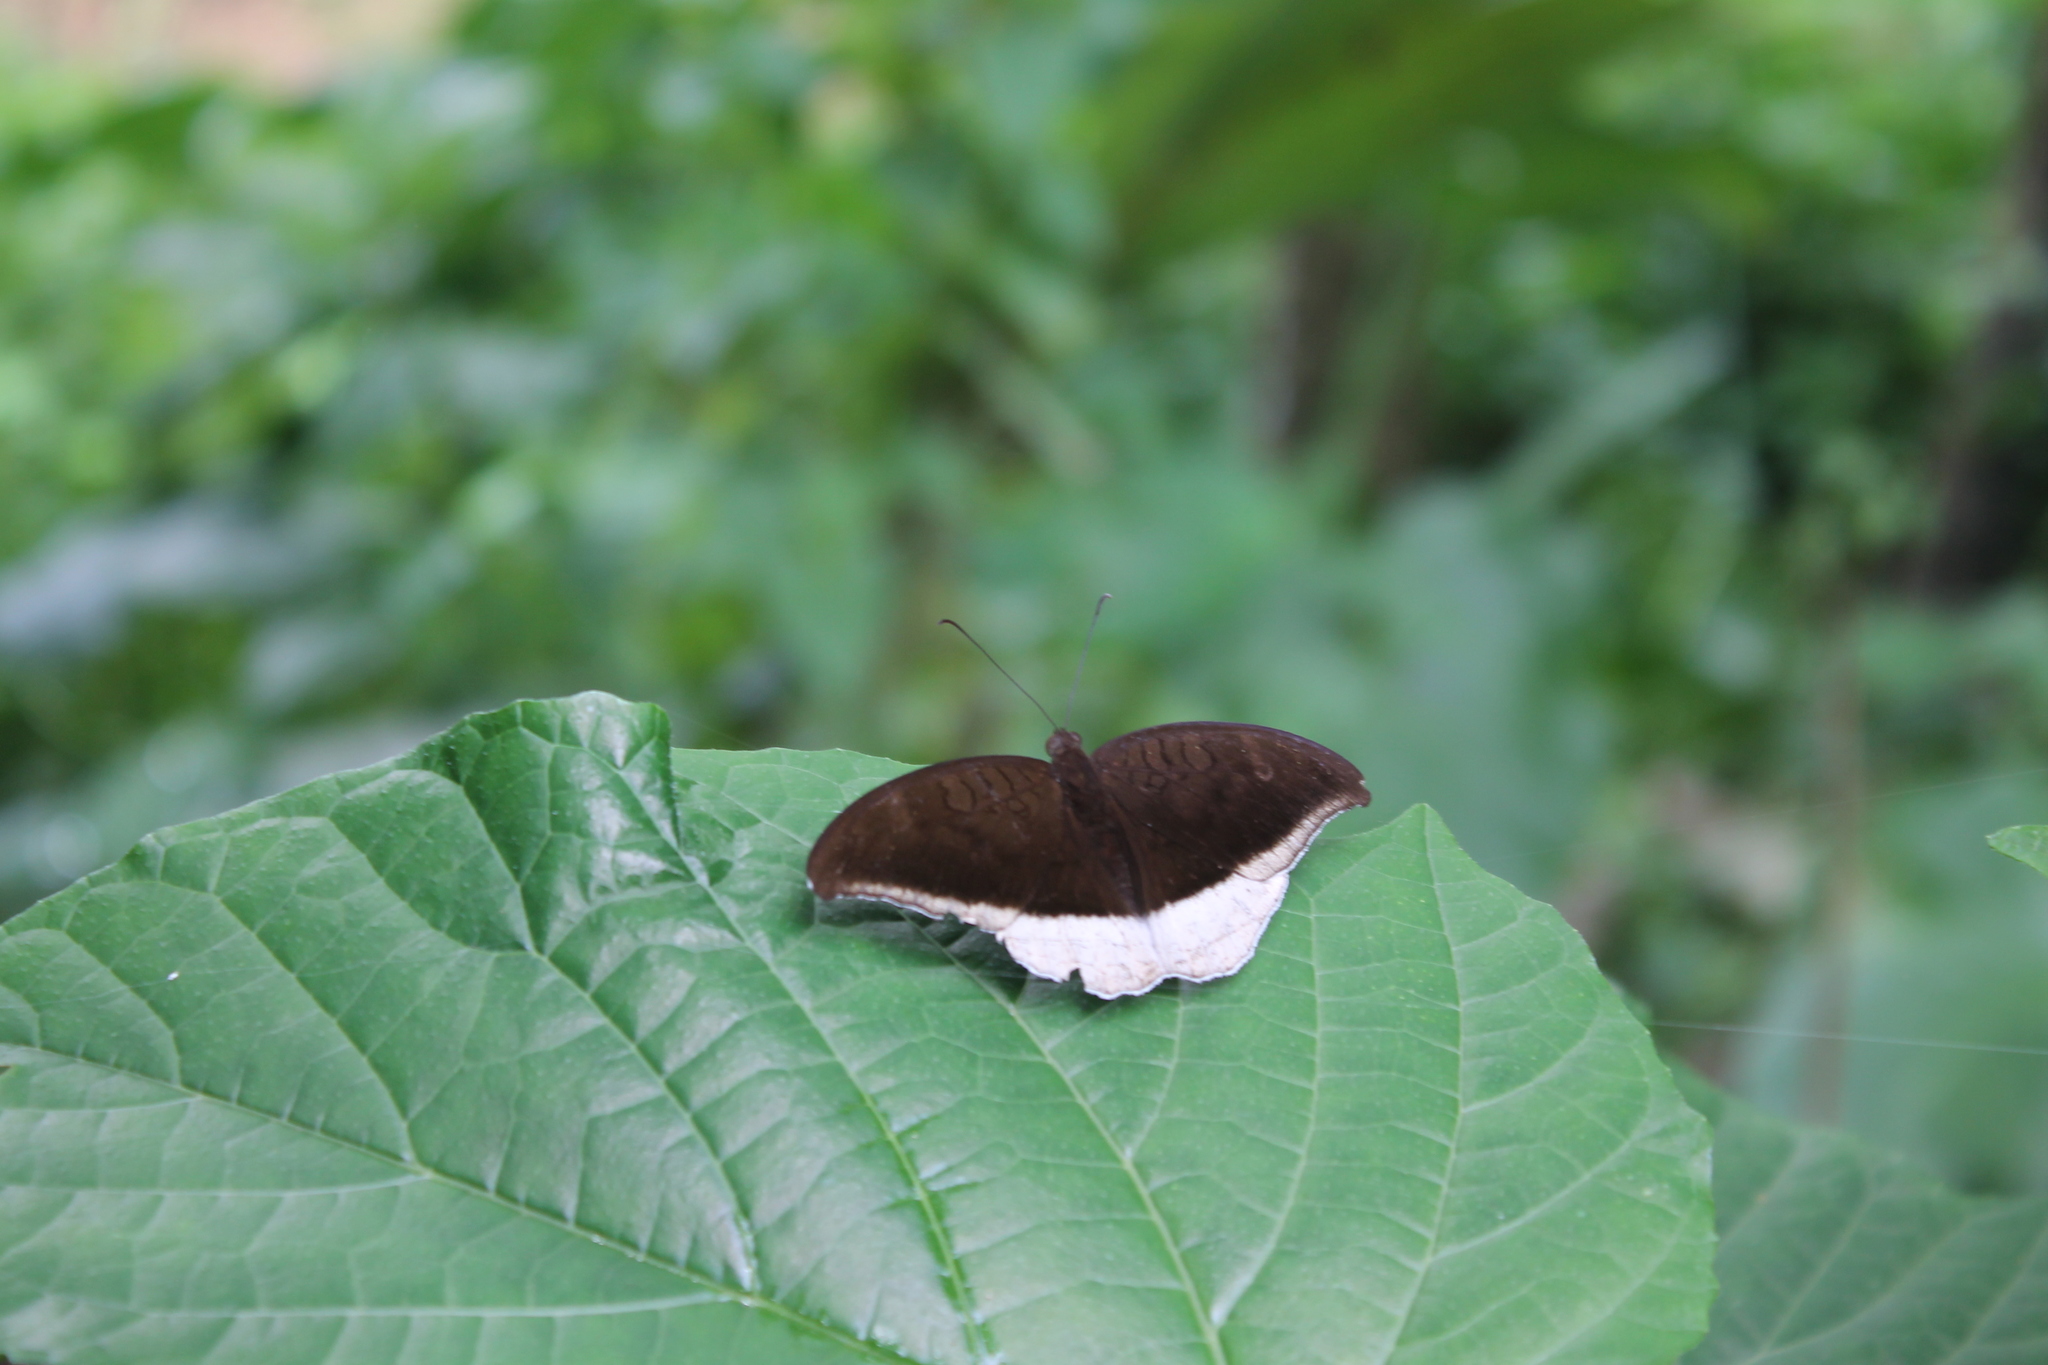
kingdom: Animalia
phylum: Arthropoda
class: Insecta
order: Lepidoptera
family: Nymphalidae
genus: Tanaecia
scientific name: Tanaecia lepidea
